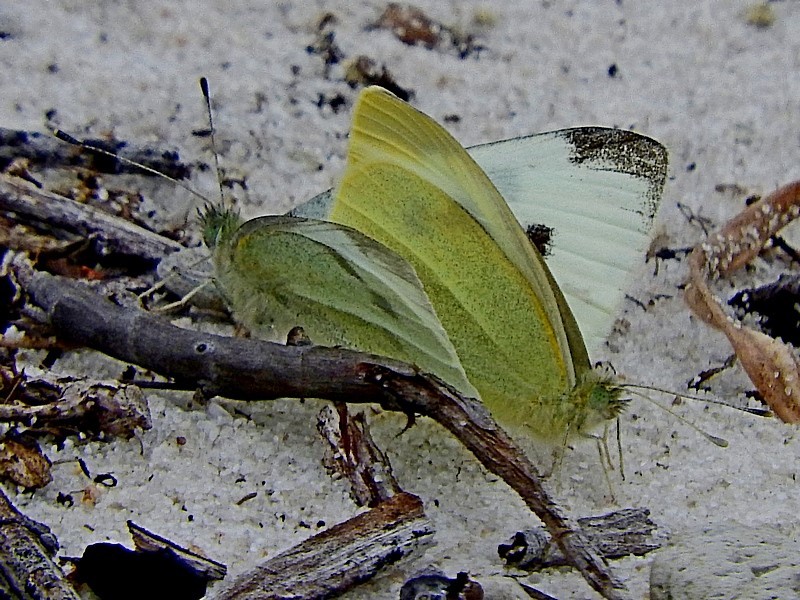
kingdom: Animalia
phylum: Arthropoda
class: Insecta
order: Lepidoptera
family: Pieridae
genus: Pieris
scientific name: Pieris rapae
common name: Small white
